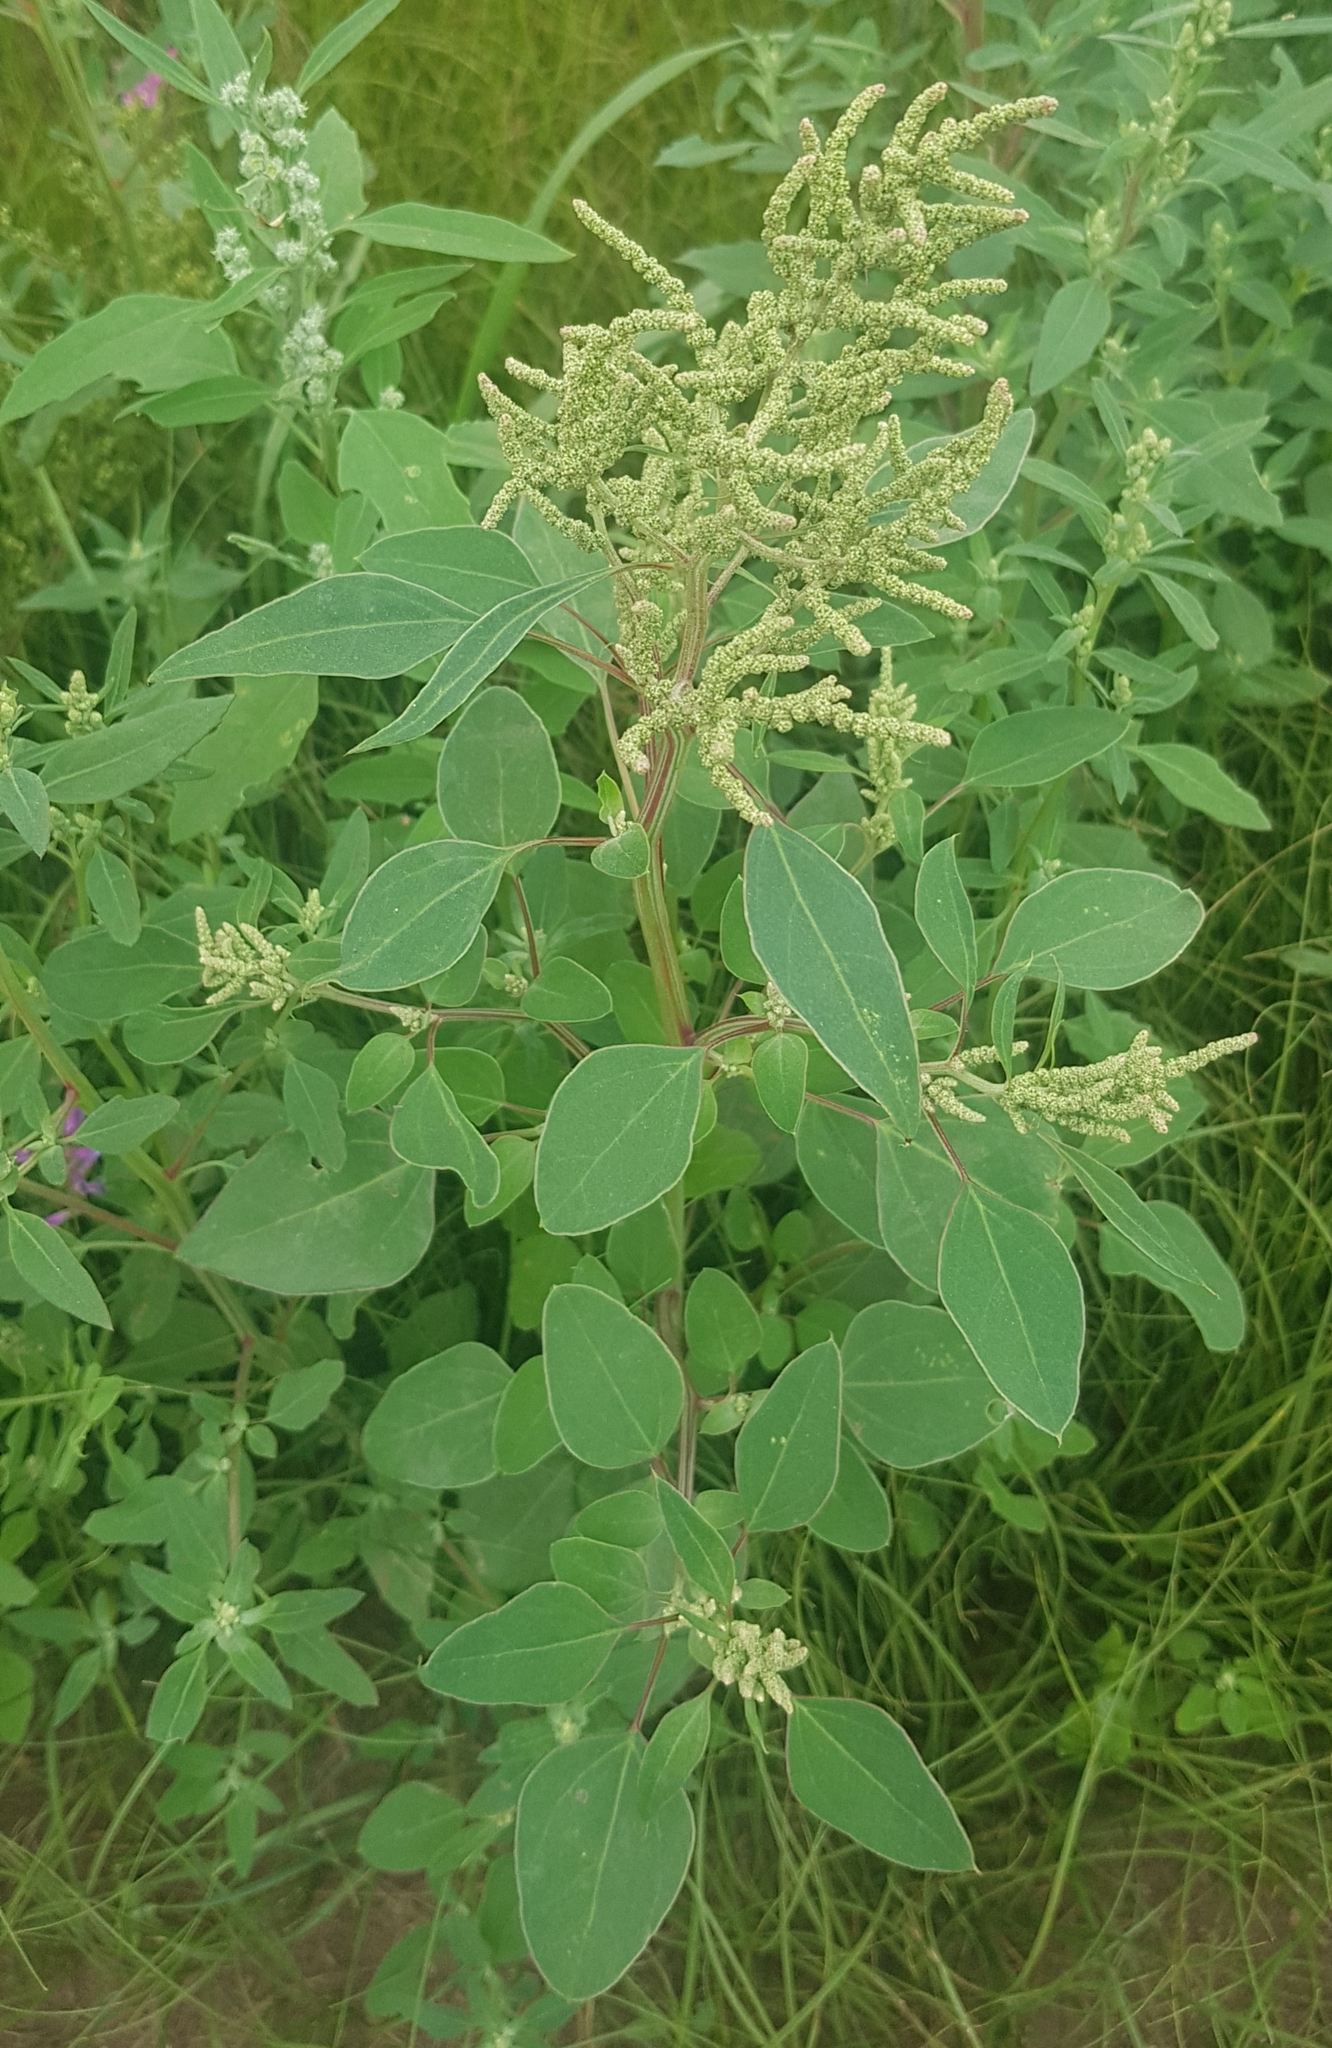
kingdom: Plantae
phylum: Tracheophyta
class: Magnoliopsida
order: Caryophyllales
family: Amaranthaceae
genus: Chenopodium
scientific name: Chenopodium acuminatum
